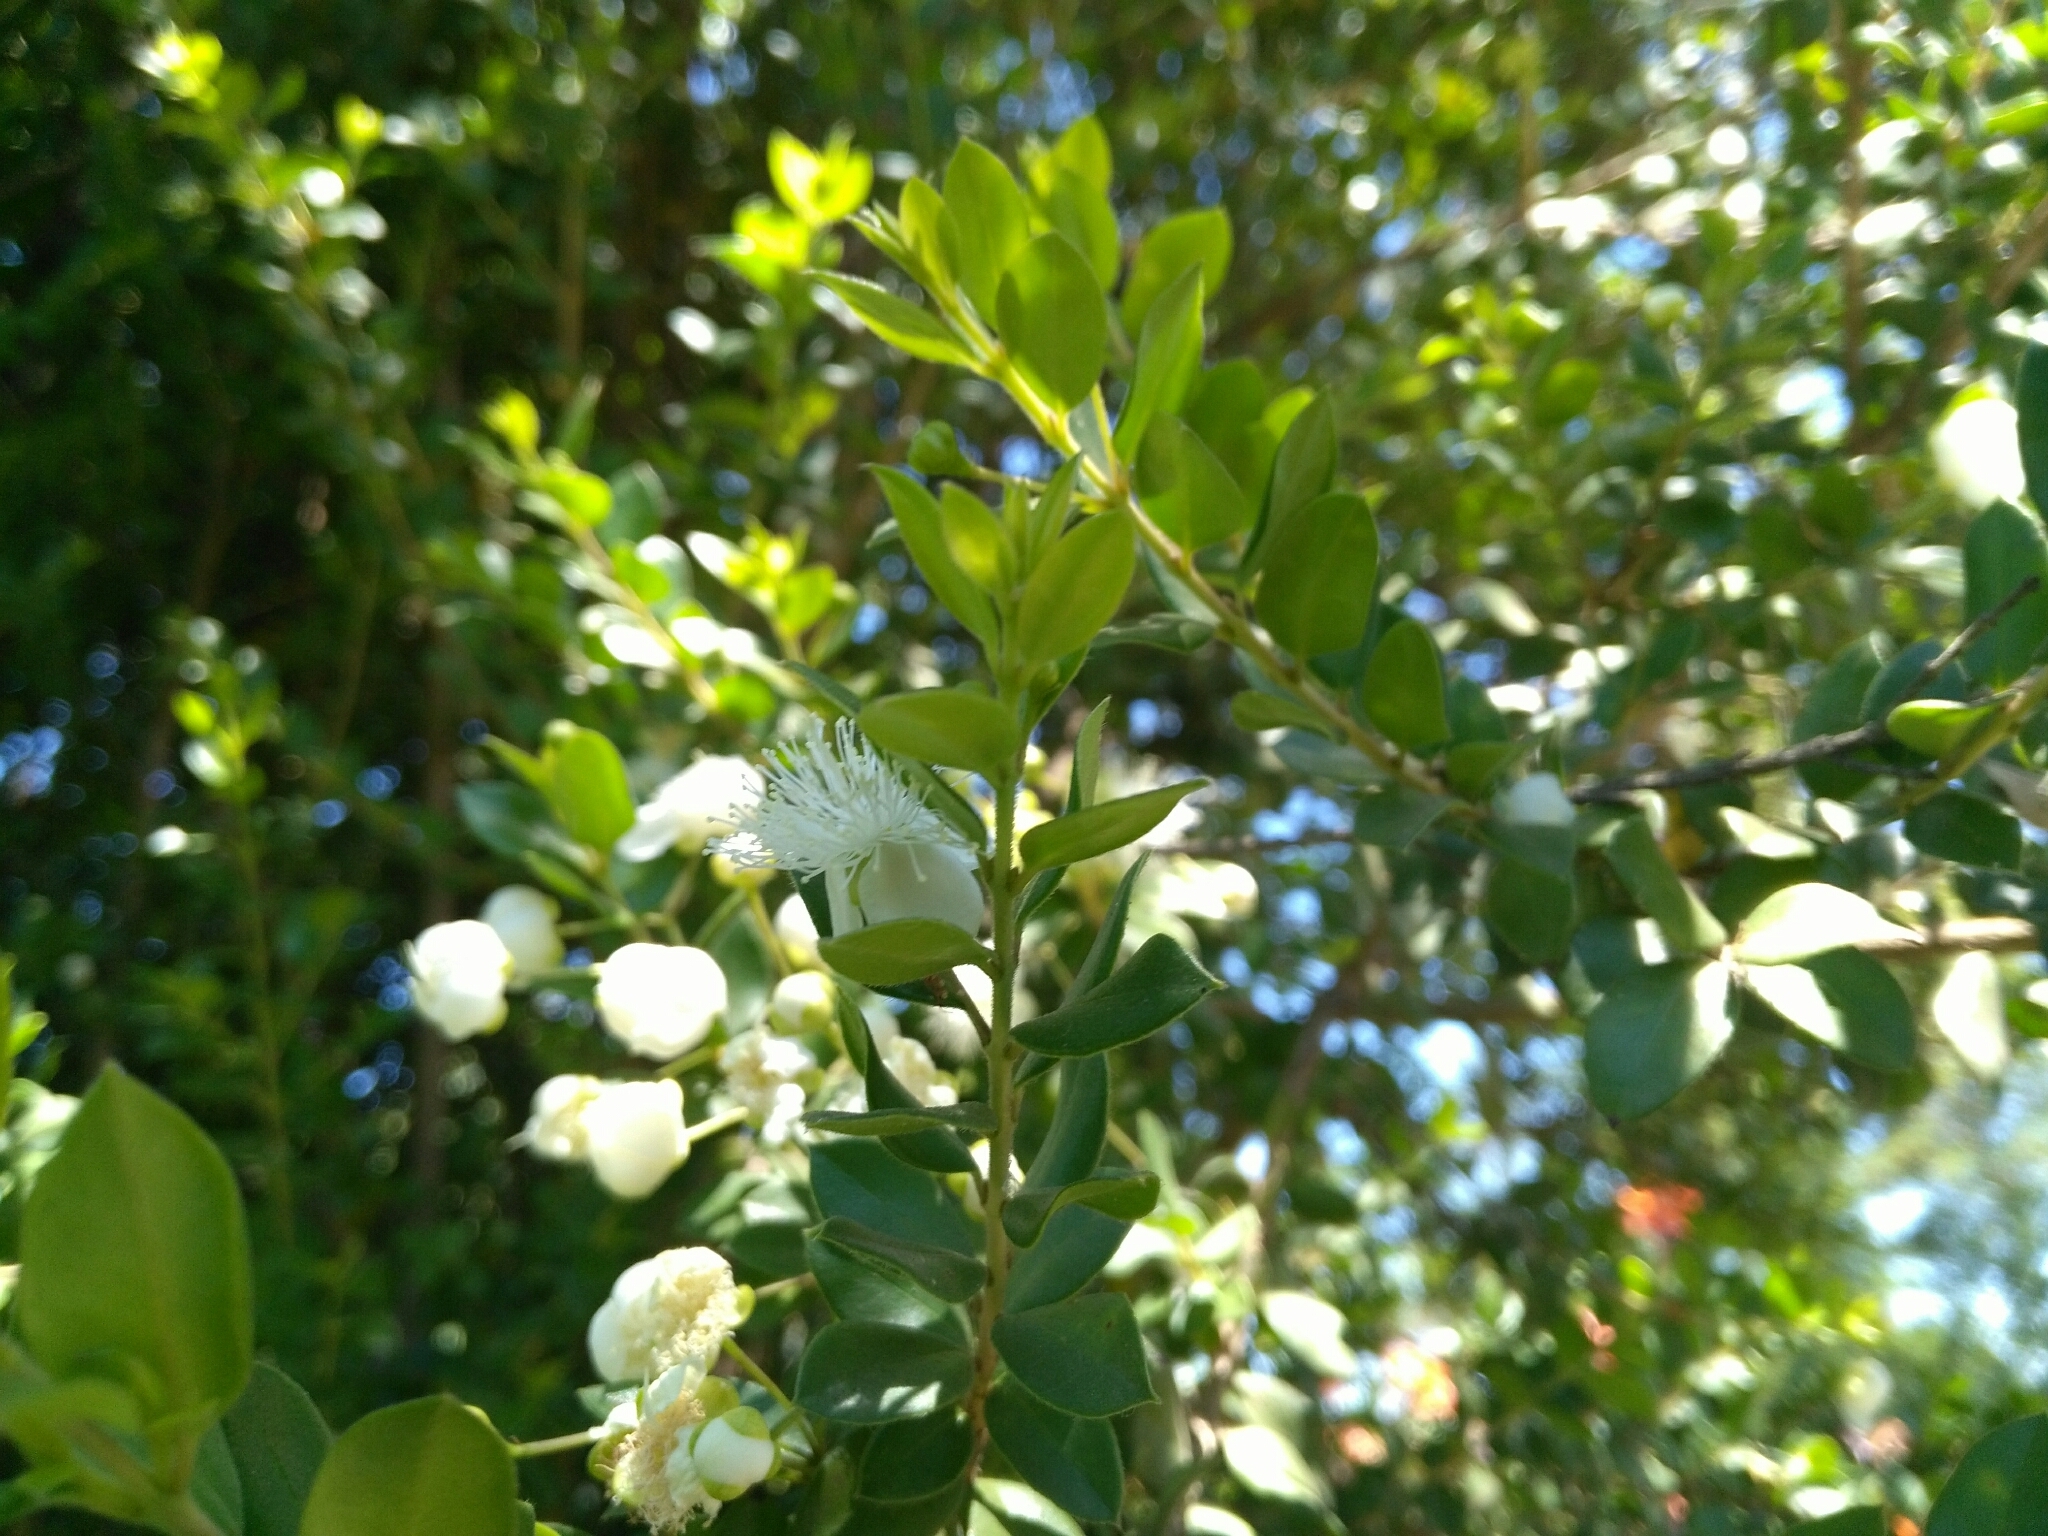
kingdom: Plantae
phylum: Tracheophyta
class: Magnoliopsida
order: Myrtales
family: Myrtaceae
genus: Luma
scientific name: Luma apiculata
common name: Chilean myrtle
